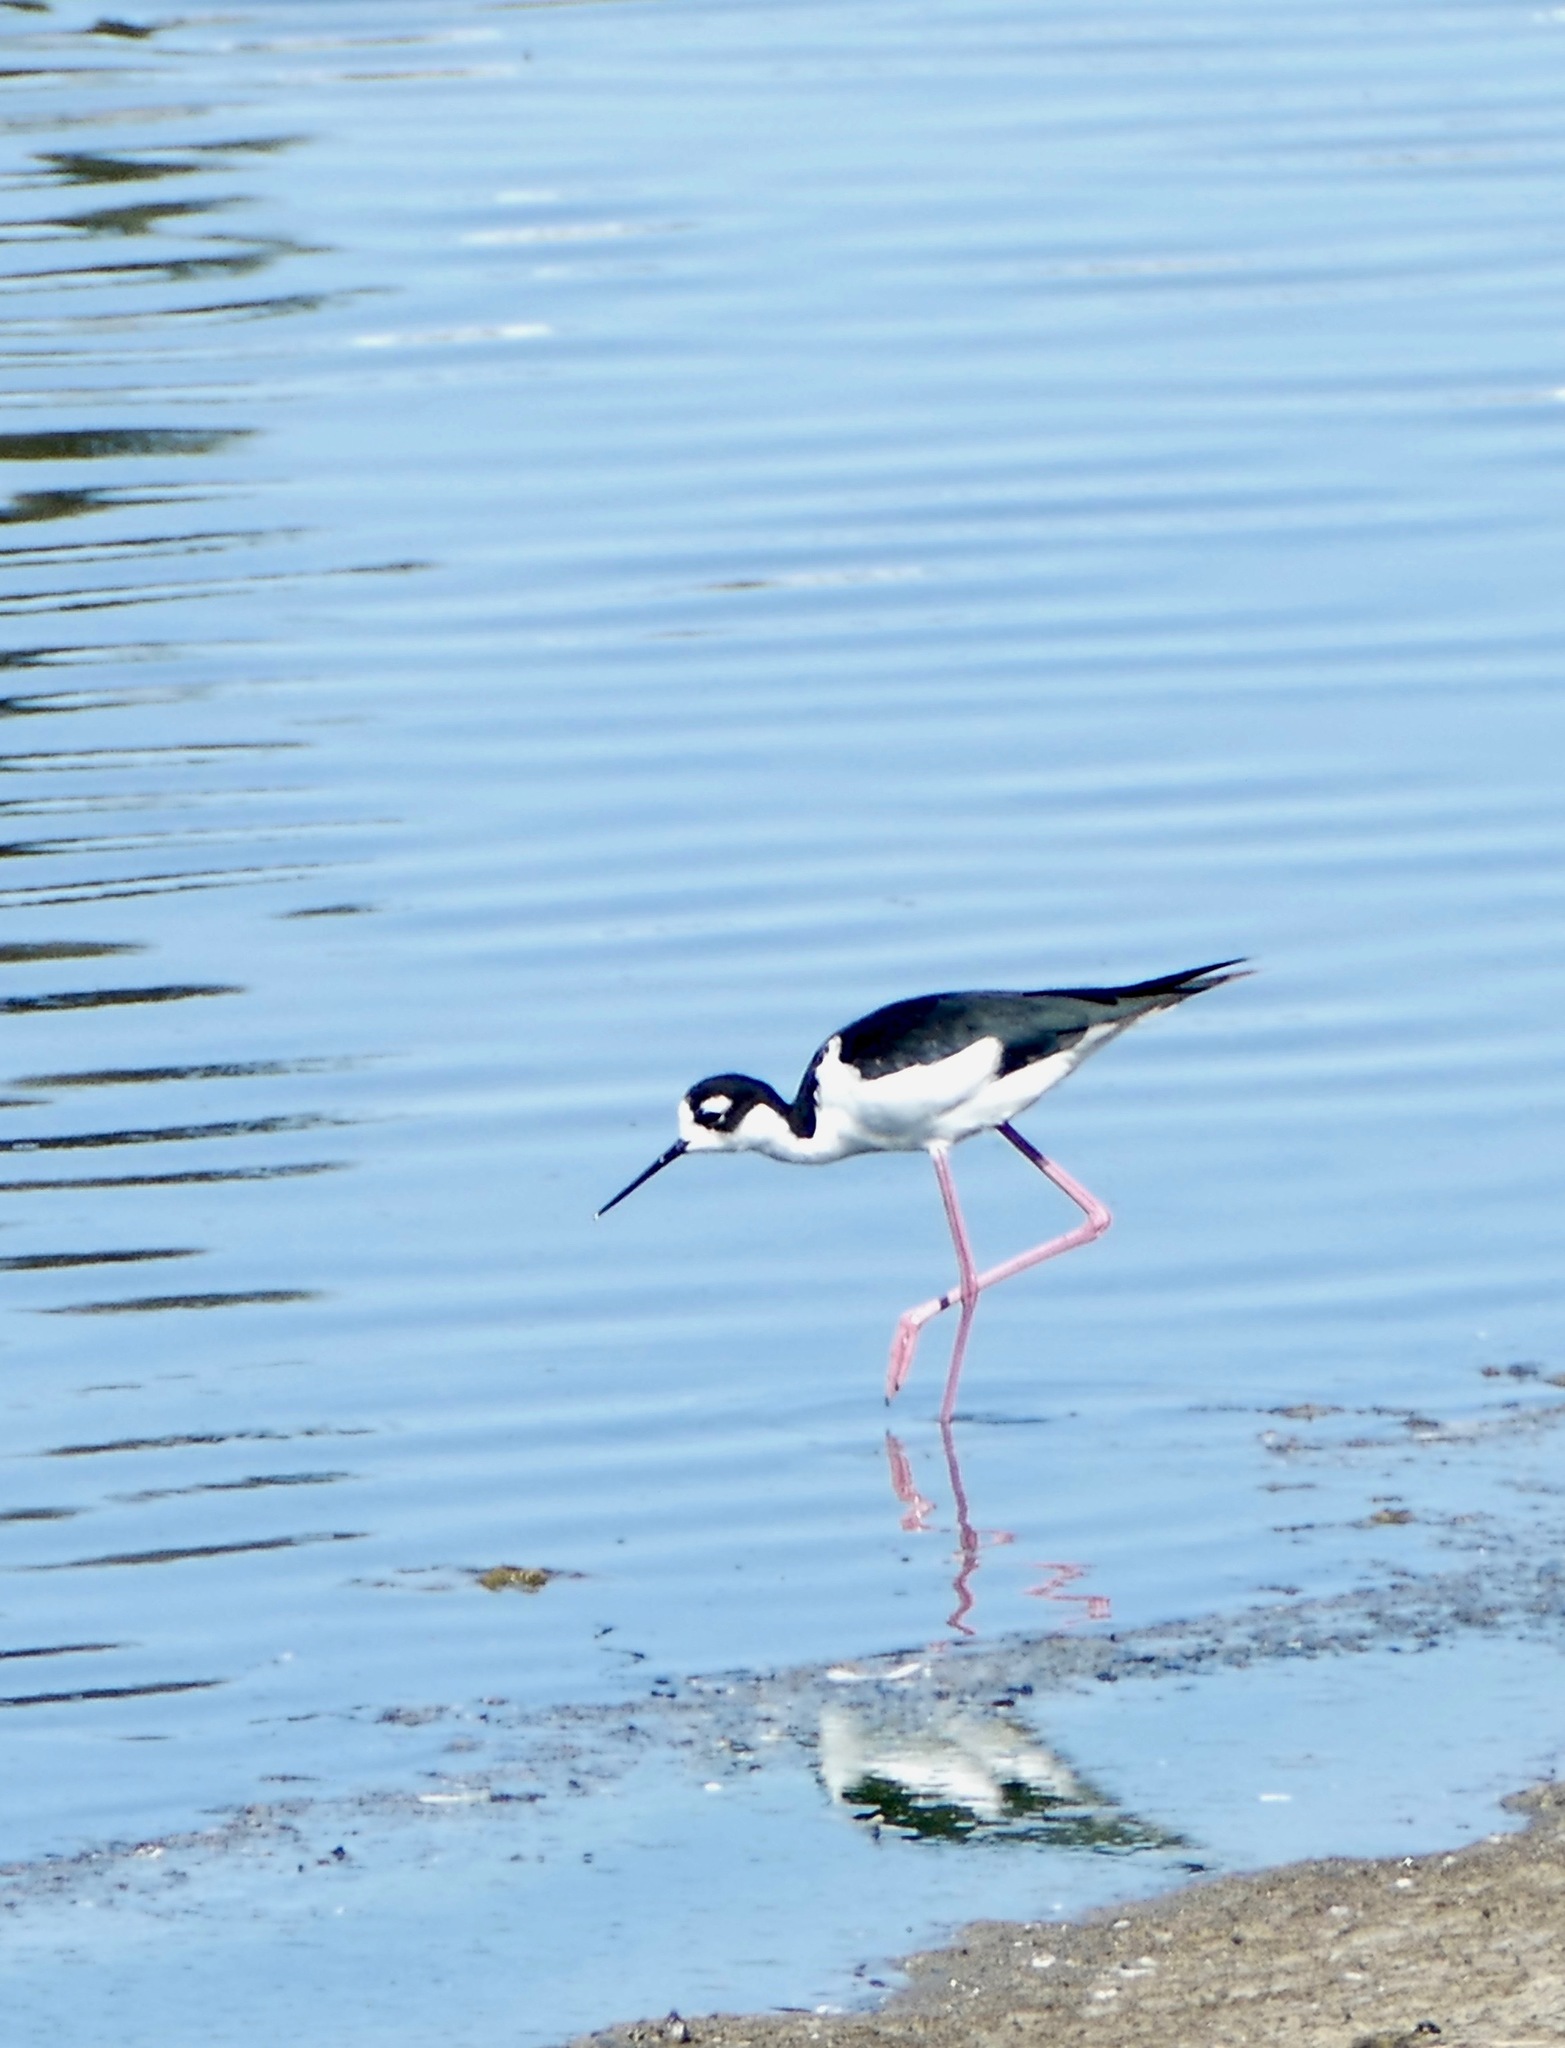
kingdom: Animalia
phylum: Chordata
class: Aves
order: Charadriiformes
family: Recurvirostridae
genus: Himantopus
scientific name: Himantopus mexicanus
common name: Black-necked stilt
